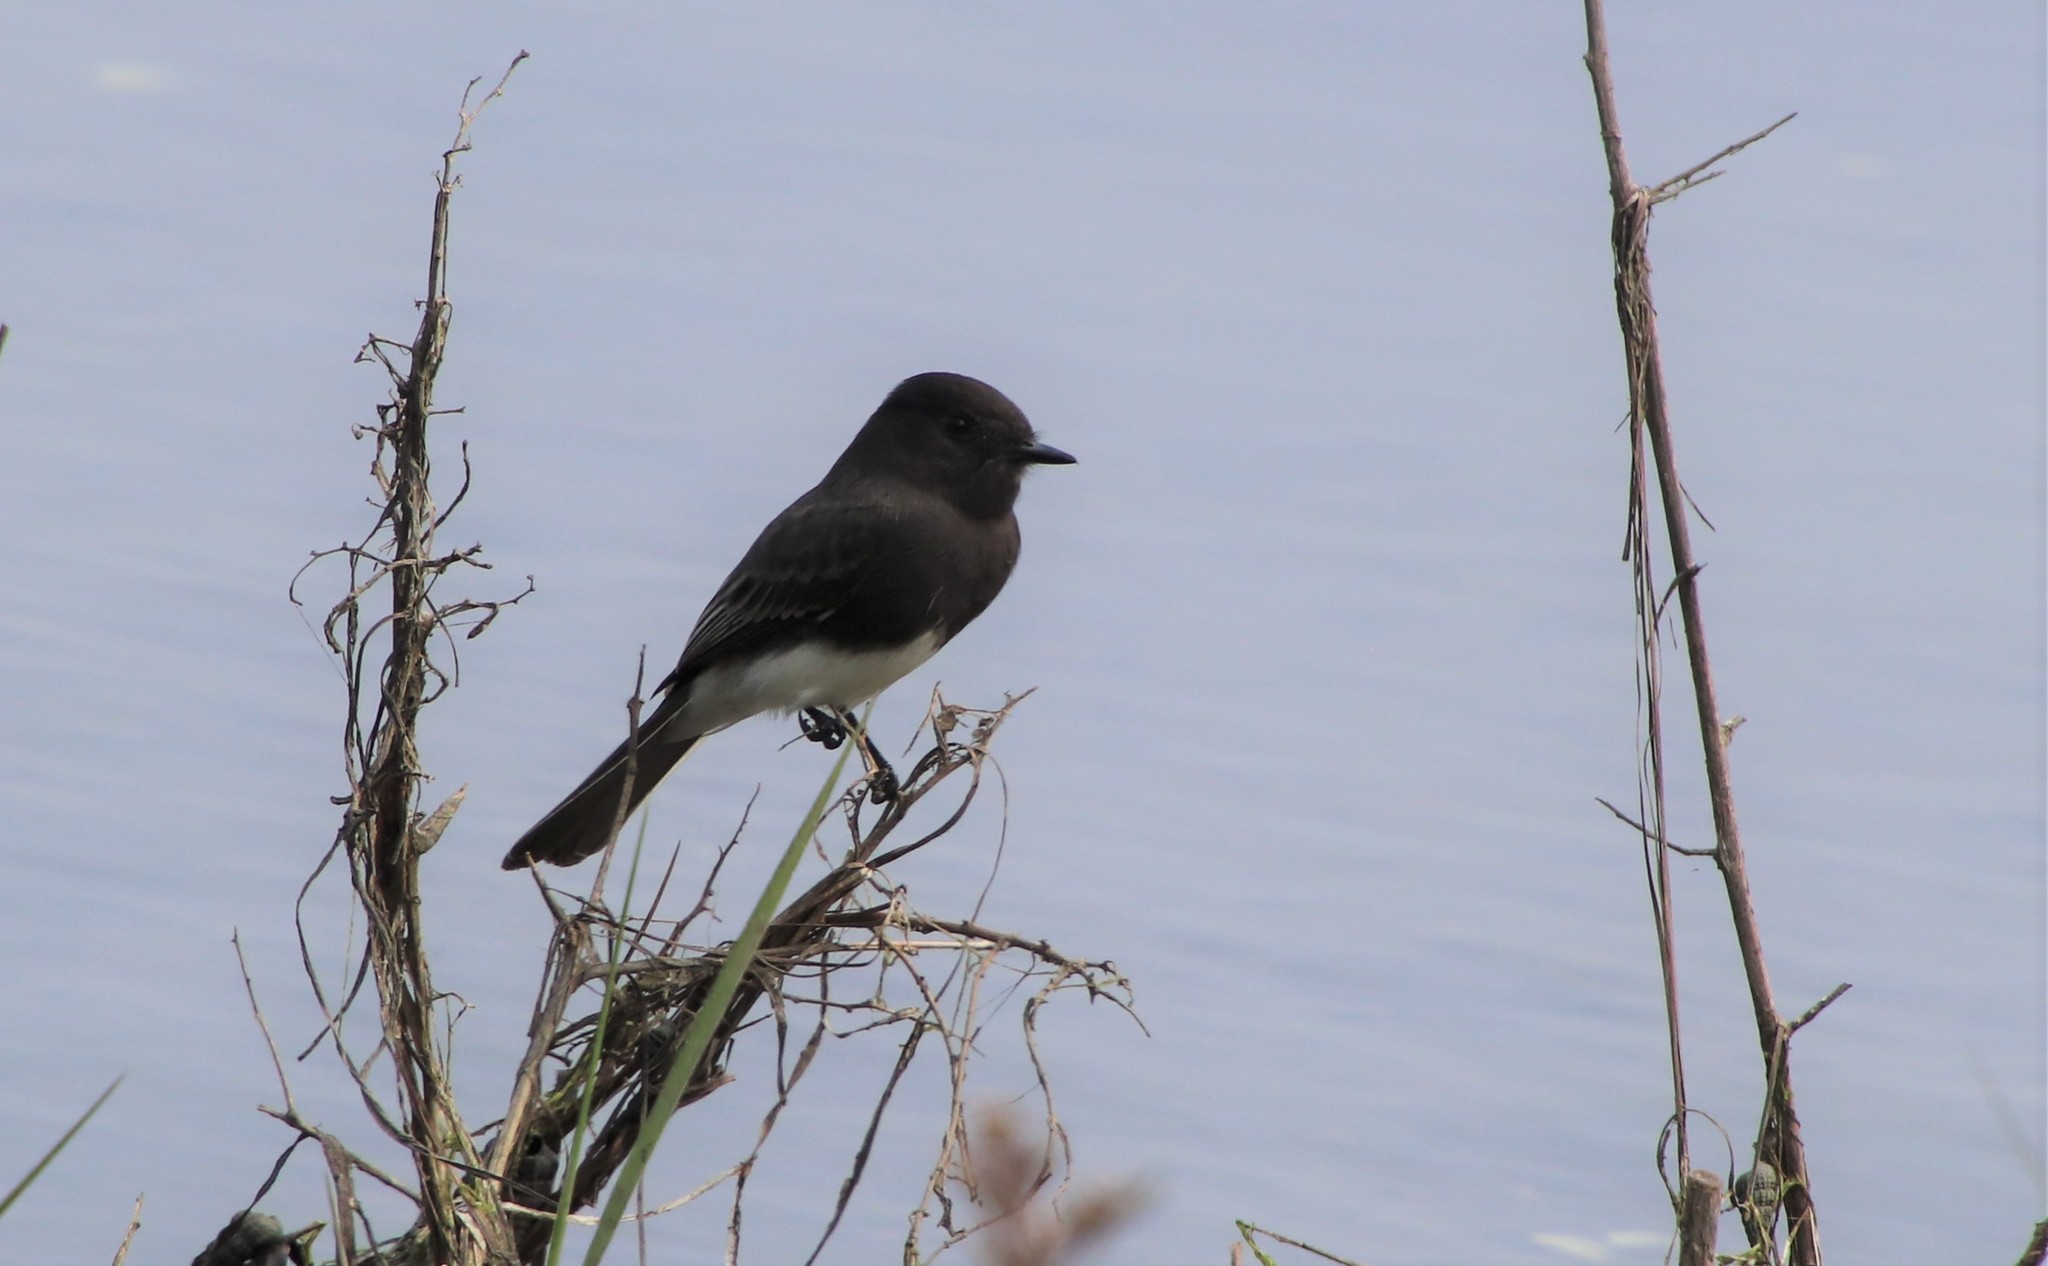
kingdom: Animalia
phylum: Chordata
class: Aves
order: Passeriformes
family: Tyrannidae
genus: Sayornis
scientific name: Sayornis nigricans
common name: Black phoebe
